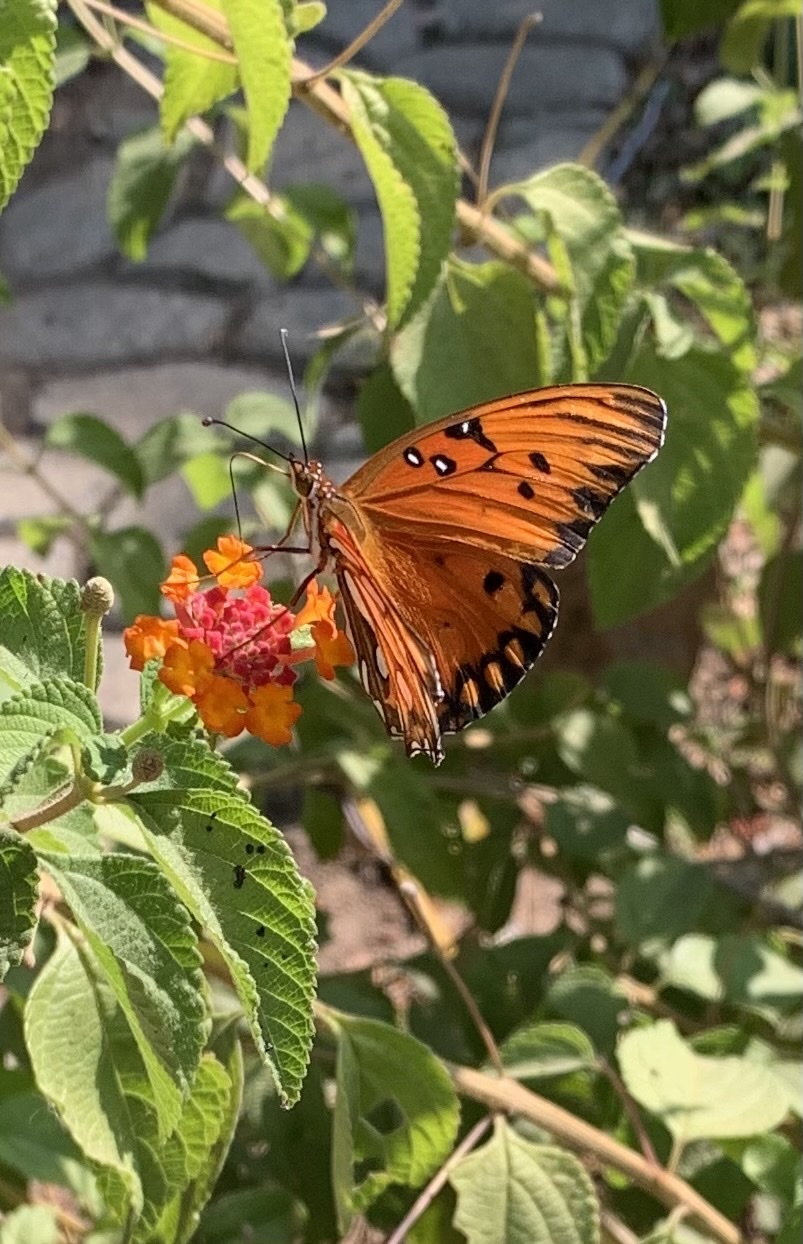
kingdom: Animalia
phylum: Arthropoda
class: Insecta
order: Lepidoptera
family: Nymphalidae
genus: Dione
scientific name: Dione vanillae
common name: Gulf fritillary
